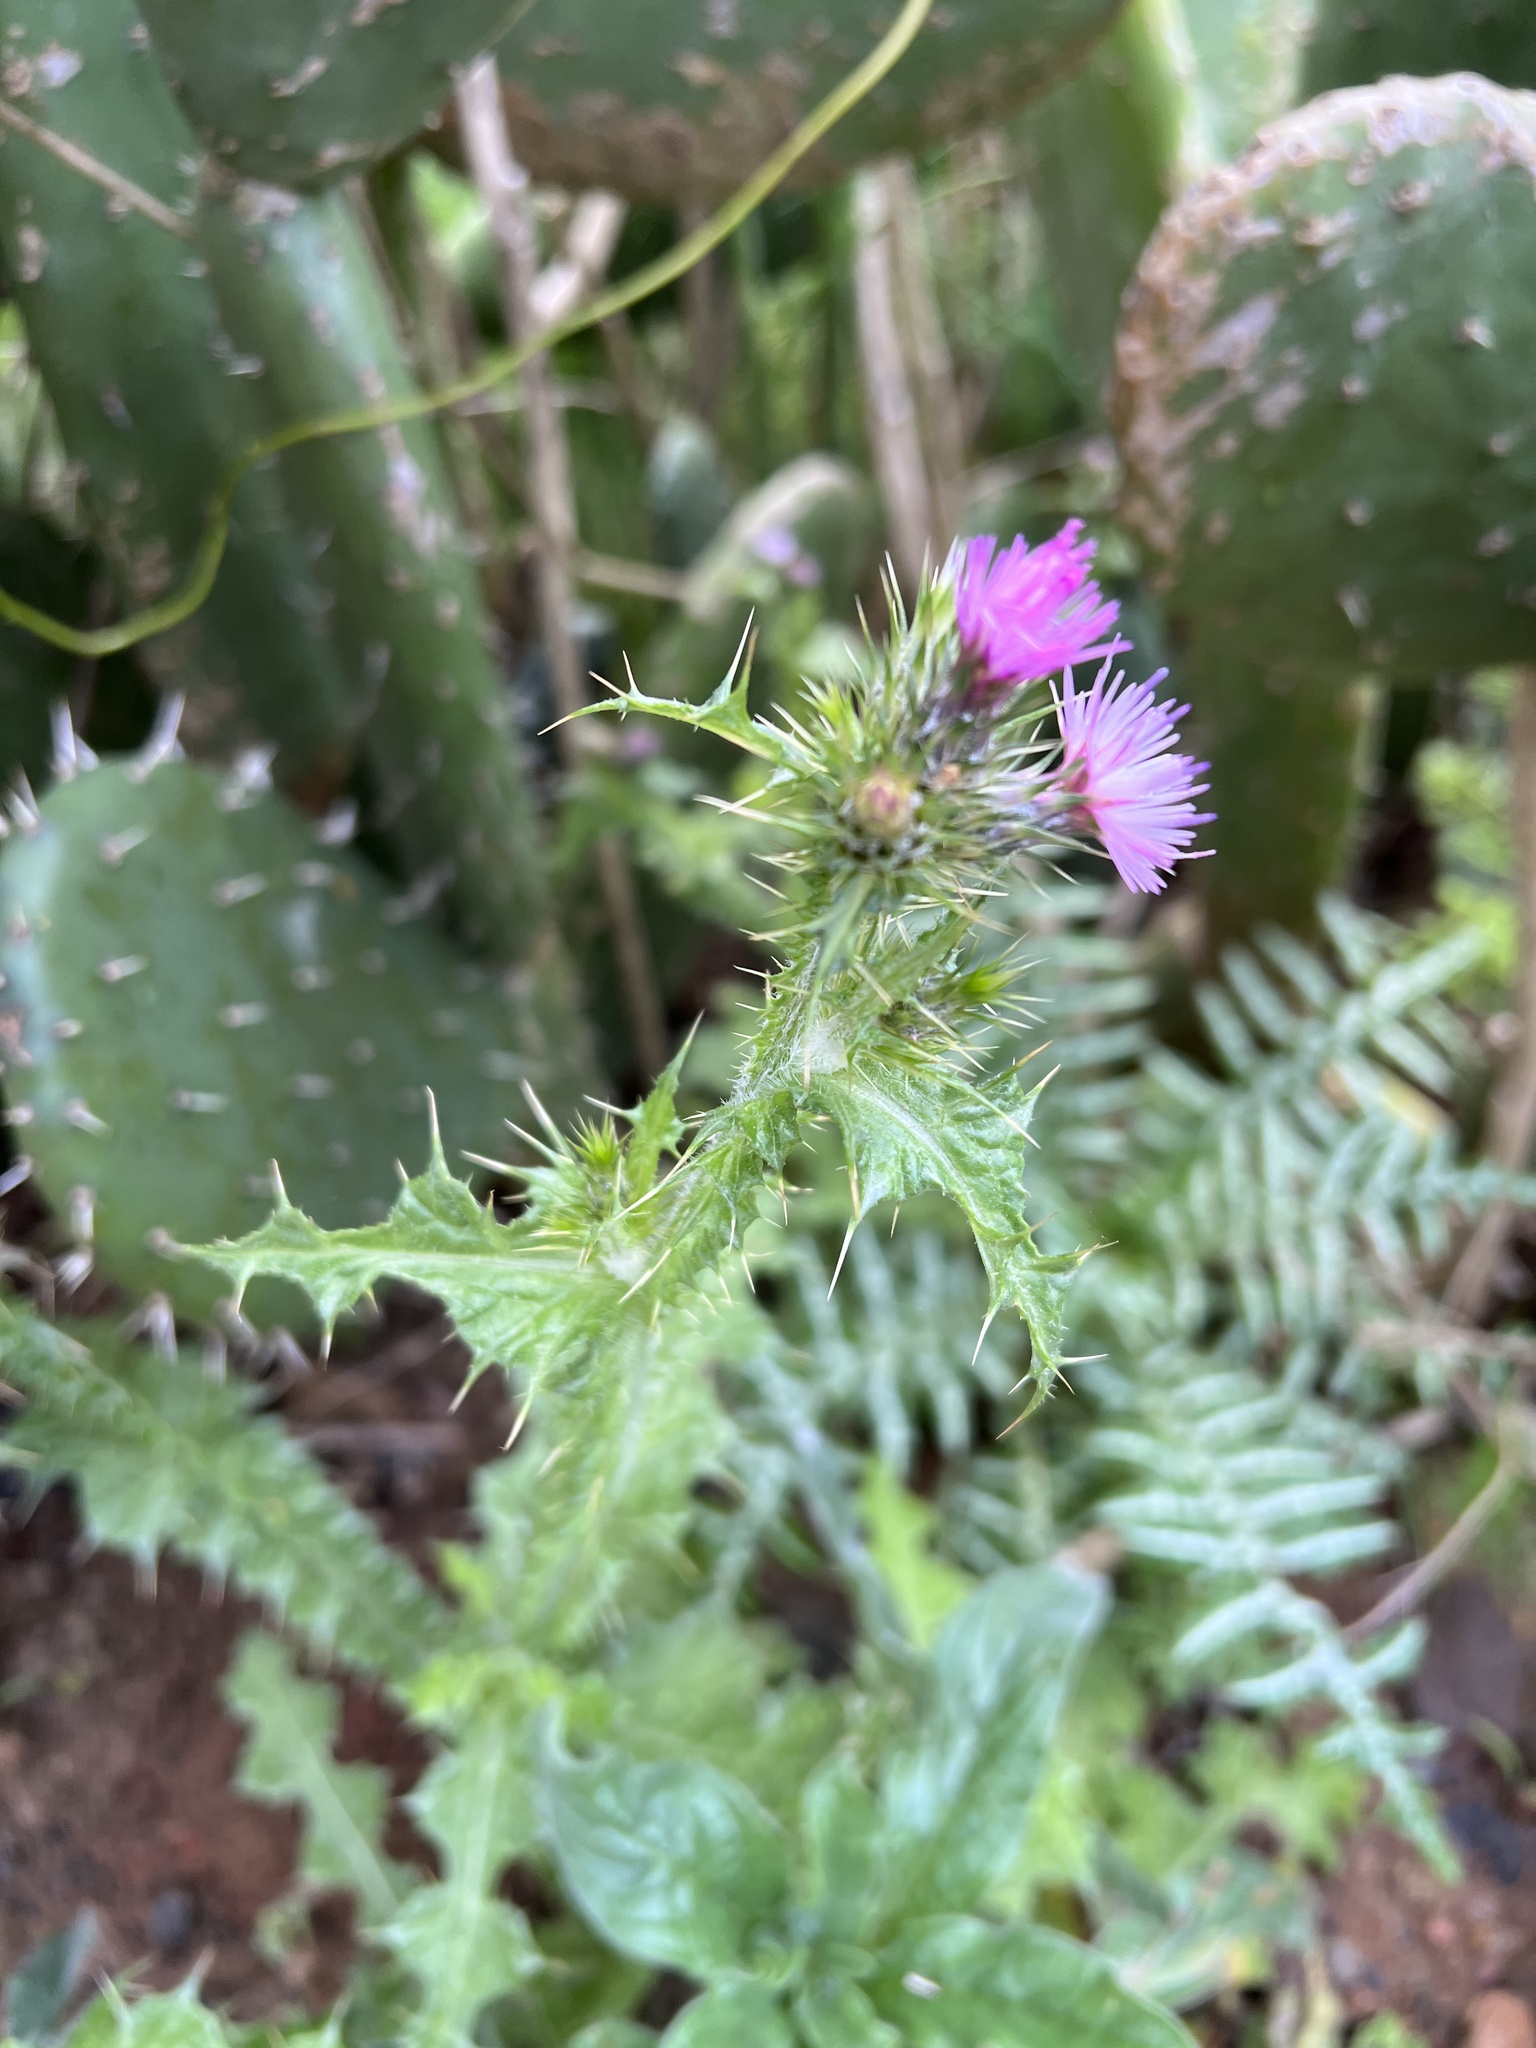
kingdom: Plantae
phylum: Tracheophyta
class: Magnoliopsida
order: Asterales
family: Asteraceae
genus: Carduus
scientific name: Carduus tenuiflorus
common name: Slender thistle
